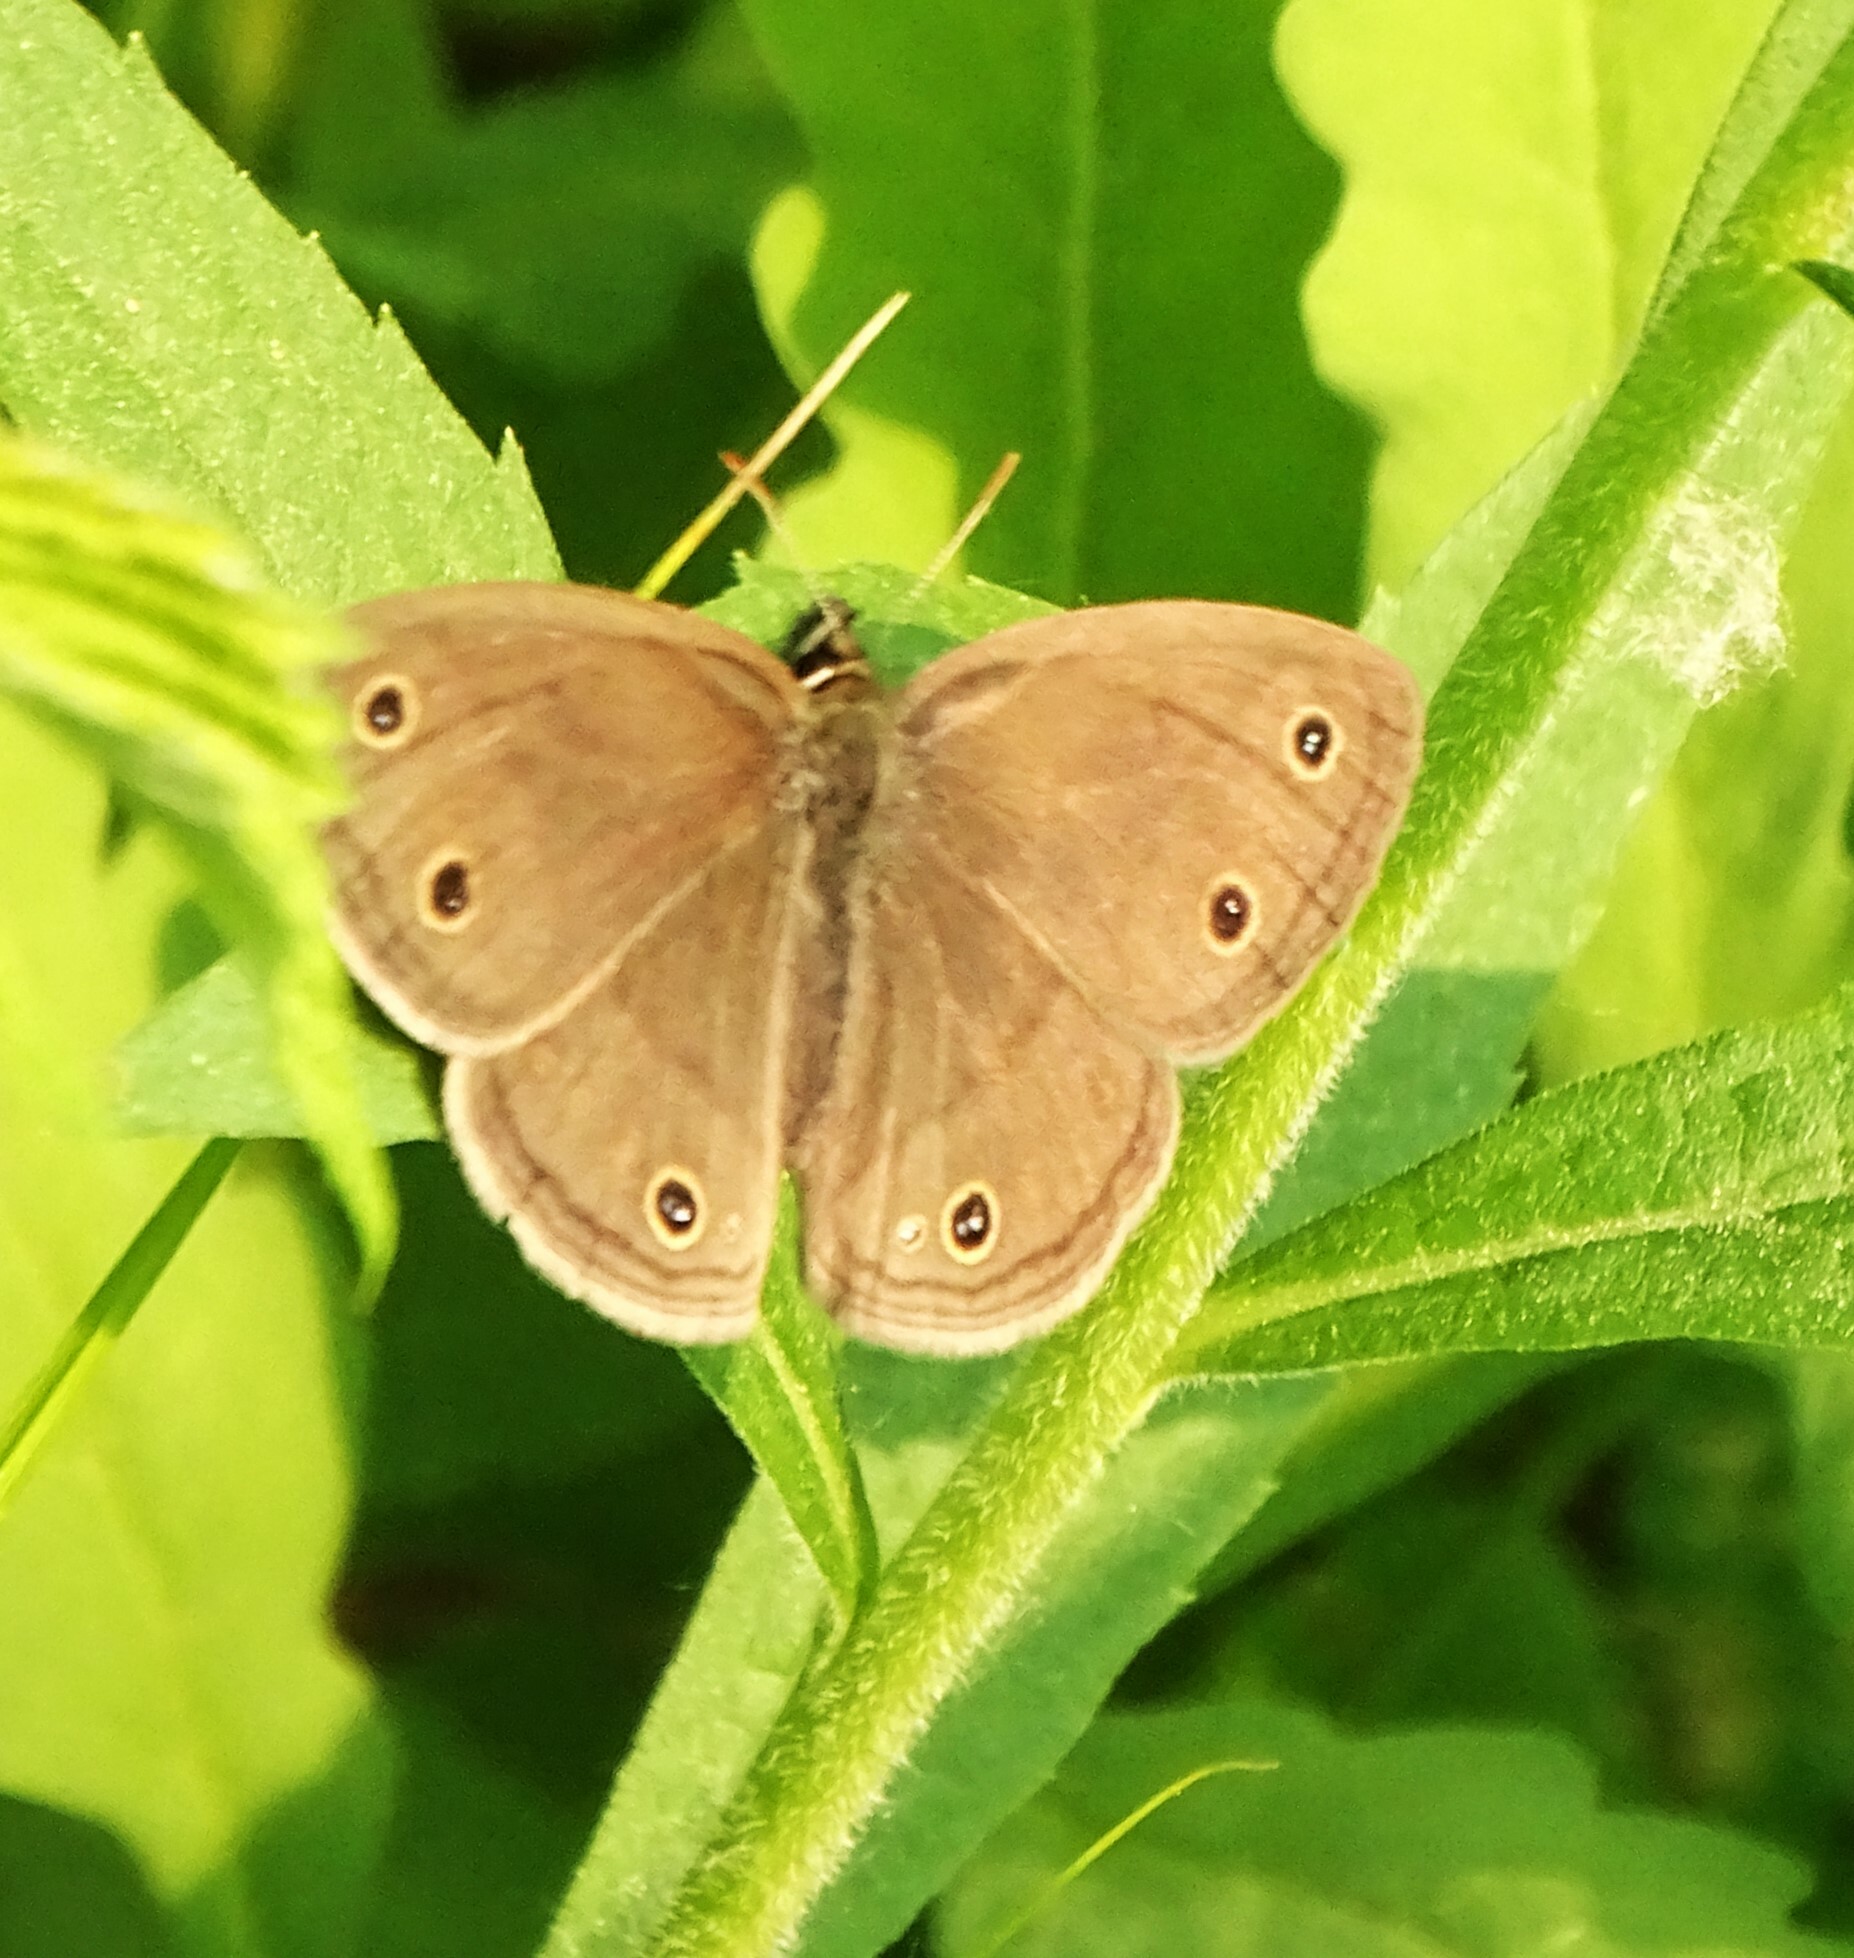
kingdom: Animalia
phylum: Arthropoda
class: Insecta
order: Lepidoptera
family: Nymphalidae
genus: Euptychia
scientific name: Euptychia cymela
